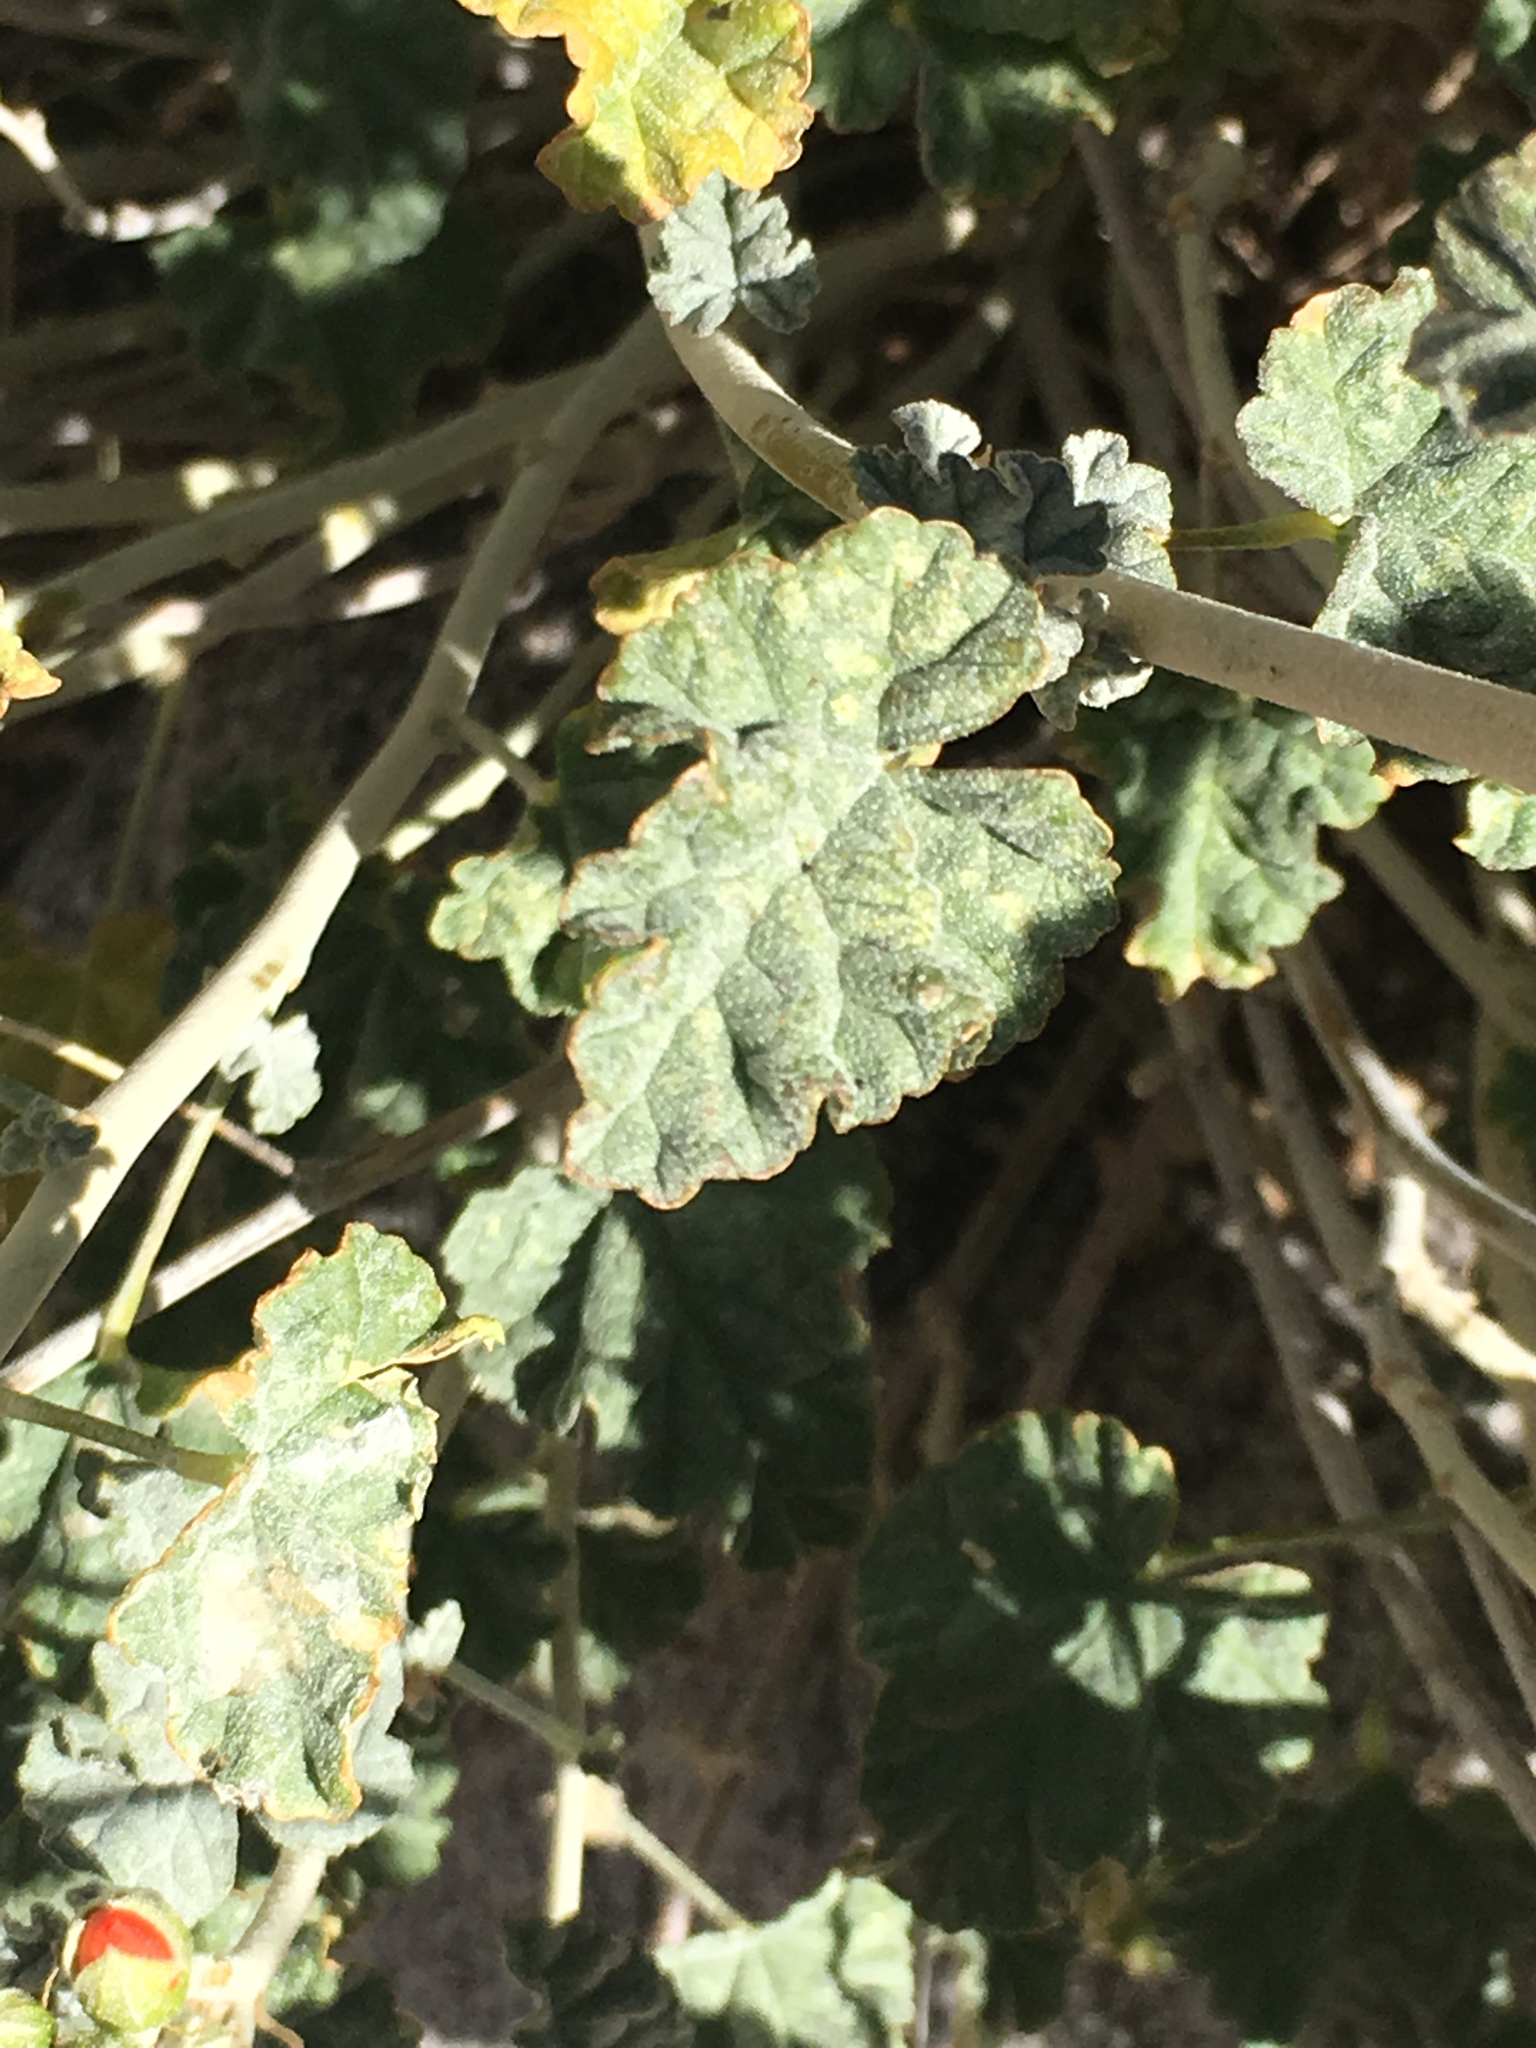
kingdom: Plantae
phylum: Tracheophyta
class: Magnoliopsida
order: Malvales
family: Malvaceae
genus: Sphaeralcea
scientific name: Sphaeralcea ambigua
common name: Apricot globe-mallow
